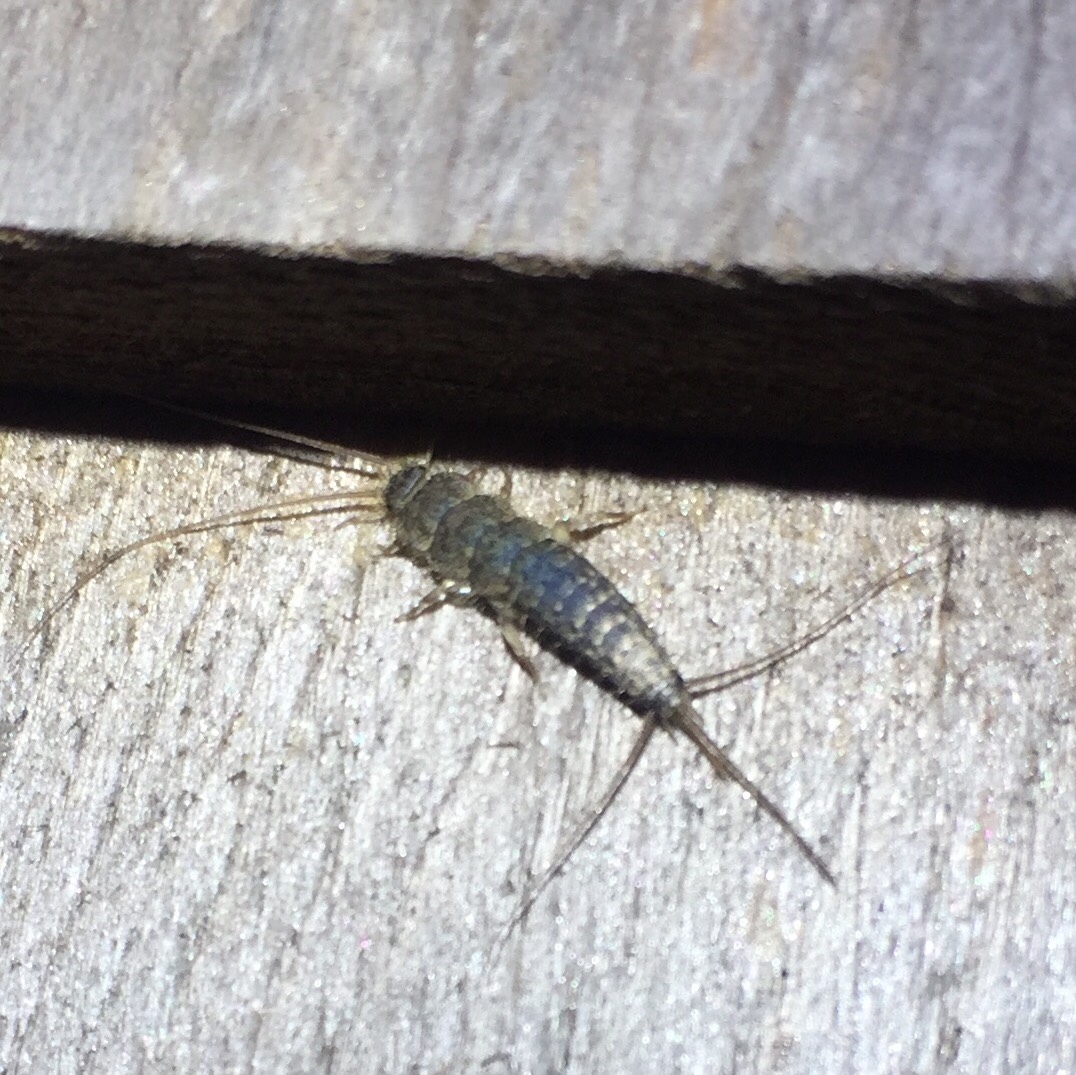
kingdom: Animalia
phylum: Arthropoda
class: Insecta
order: Zygentoma
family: Lepismatidae
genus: Ctenolepisma
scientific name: Ctenolepisma lineata
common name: Four-lined silverfish
